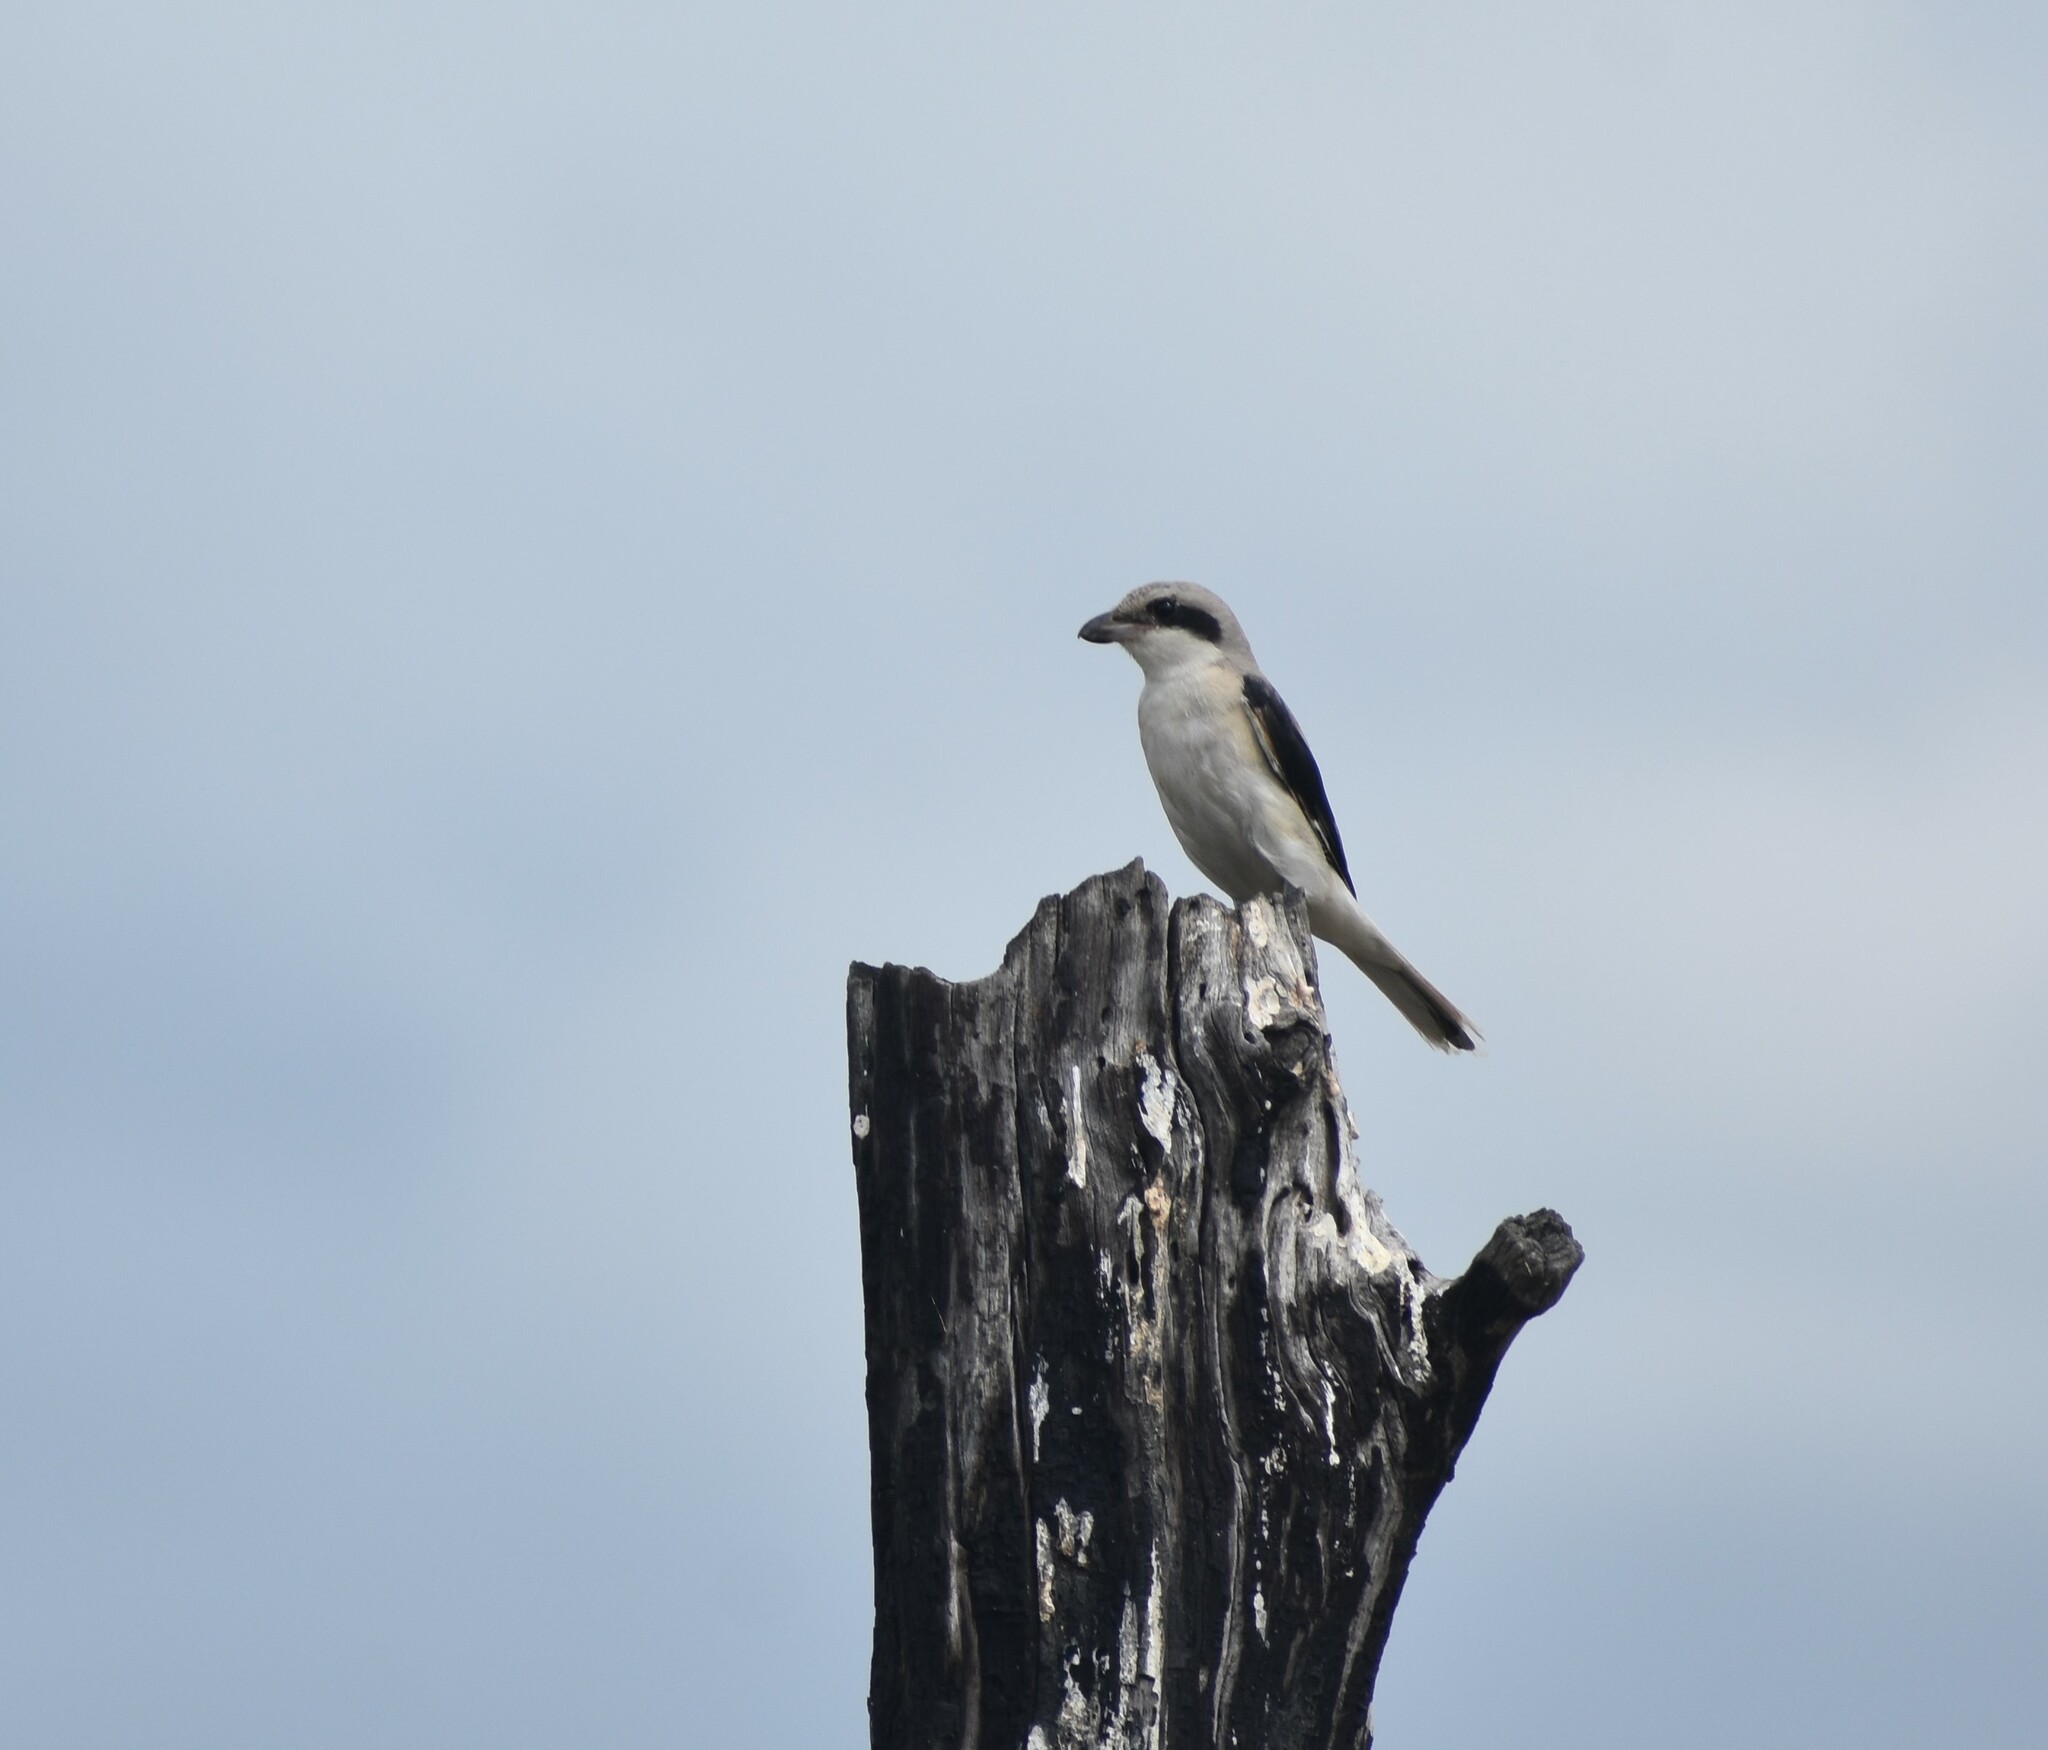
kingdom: Animalia
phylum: Chordata
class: Aves
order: Passeriformes
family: Laniidae
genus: Lanius
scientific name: Lanius minor
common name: Lesser grey shrike
